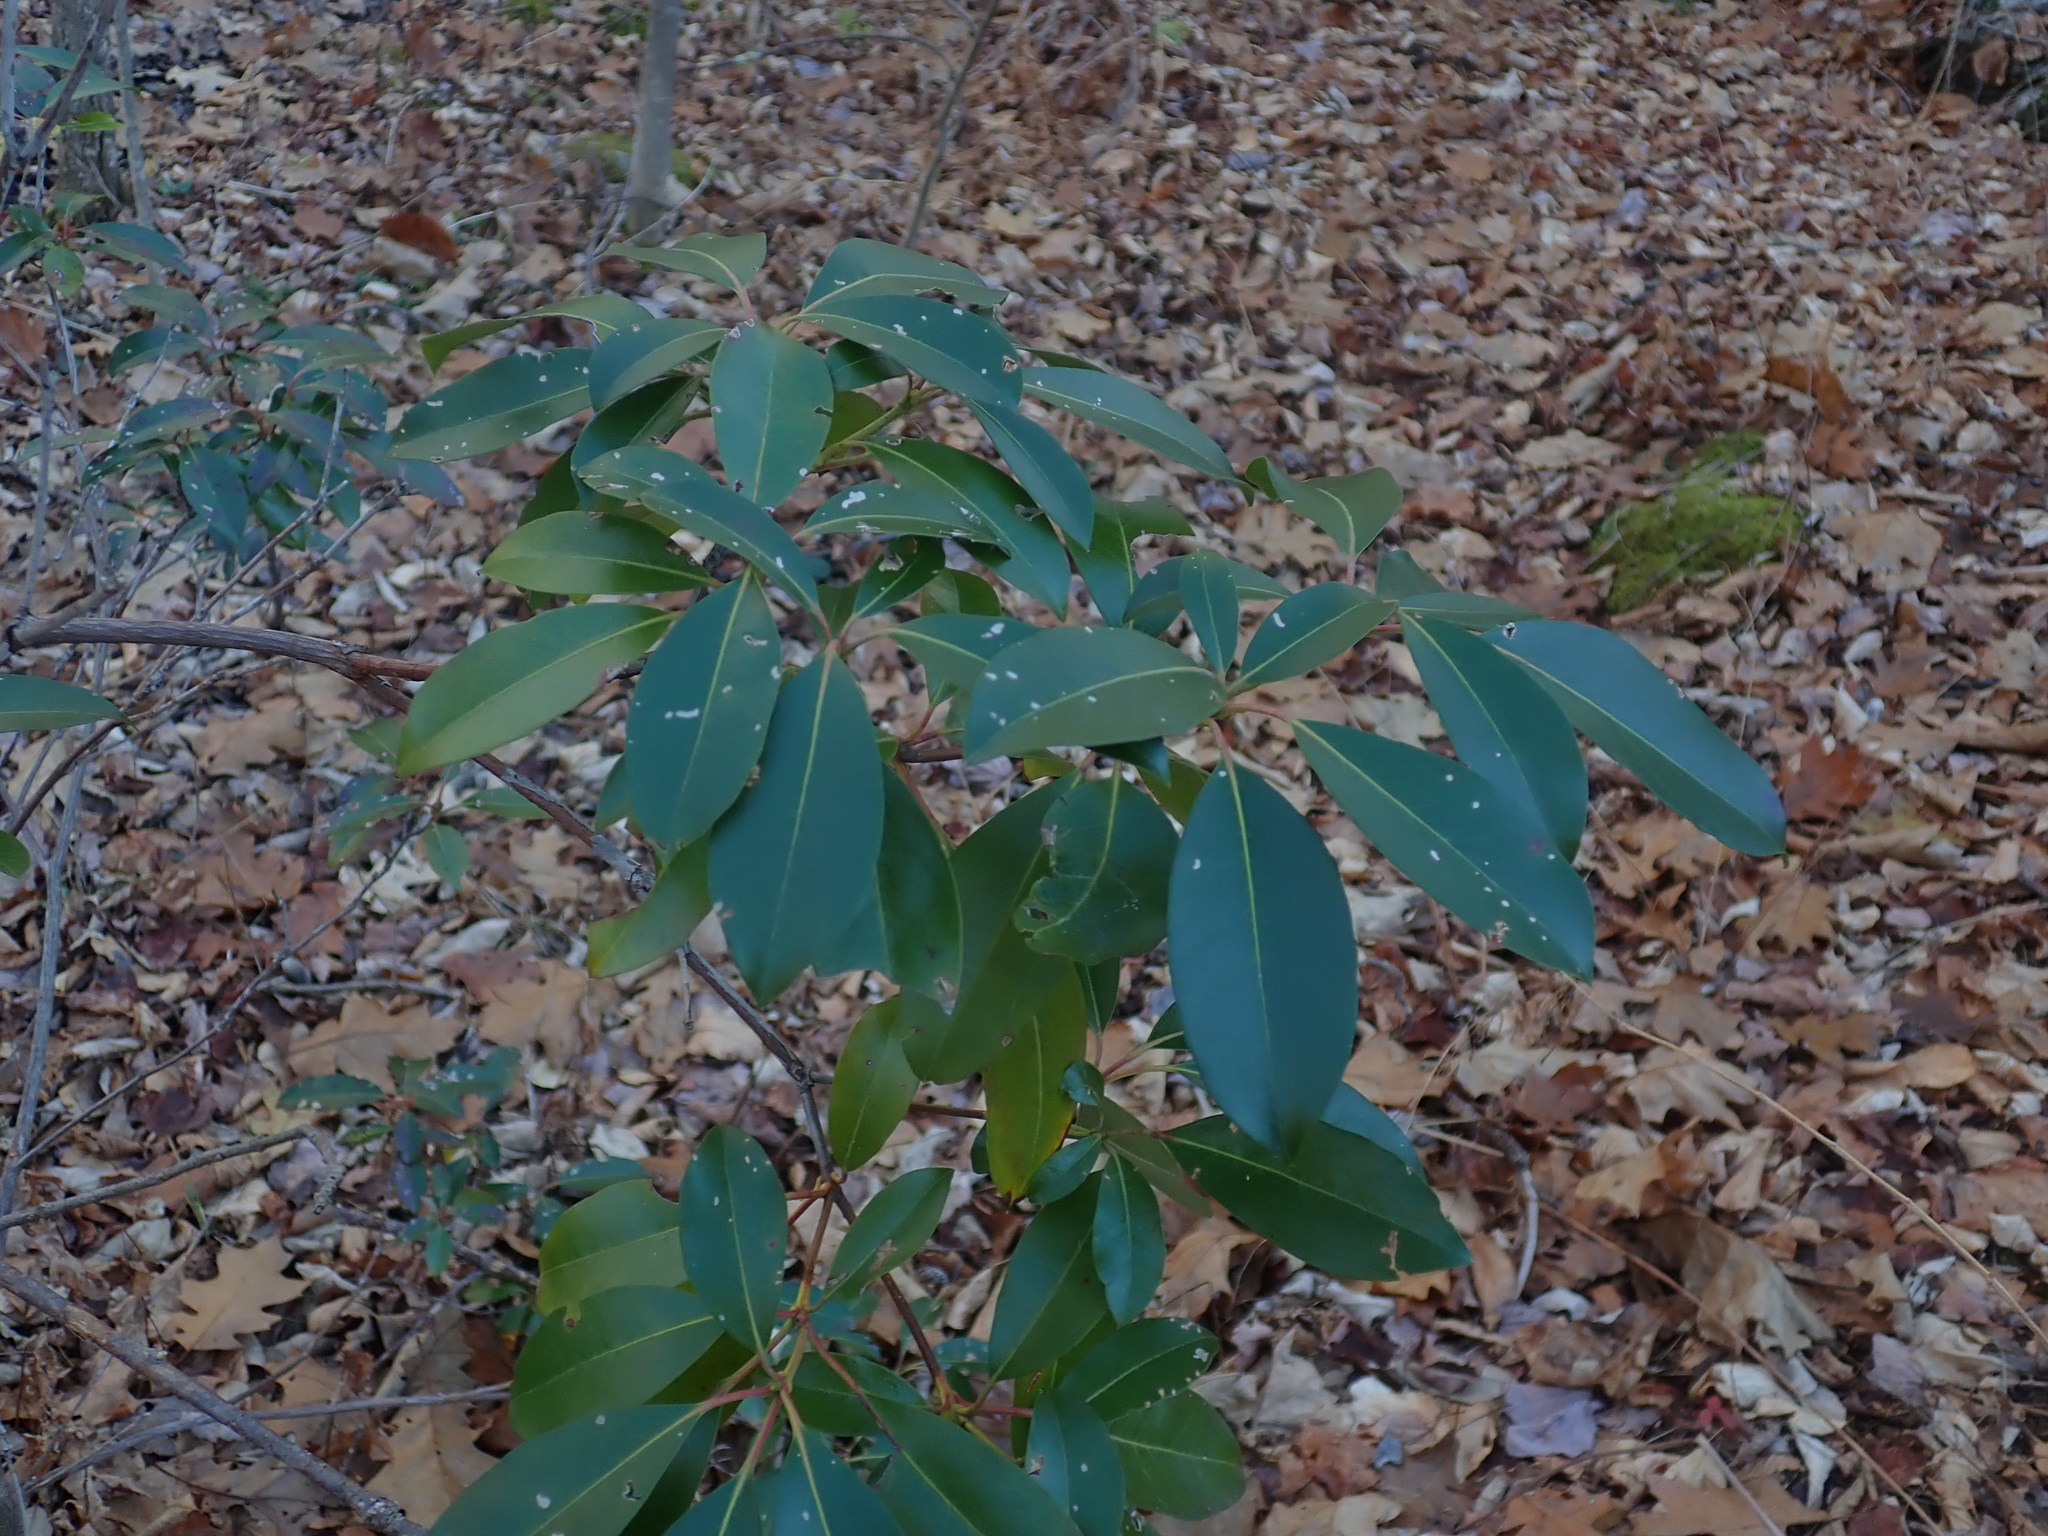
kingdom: Plantae
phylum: Tracheophyta
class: Magnoliopsida
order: Ericales
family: Ericaceae
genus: Kalmia
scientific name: Kalmia latifolia
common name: Mountain-laurel
